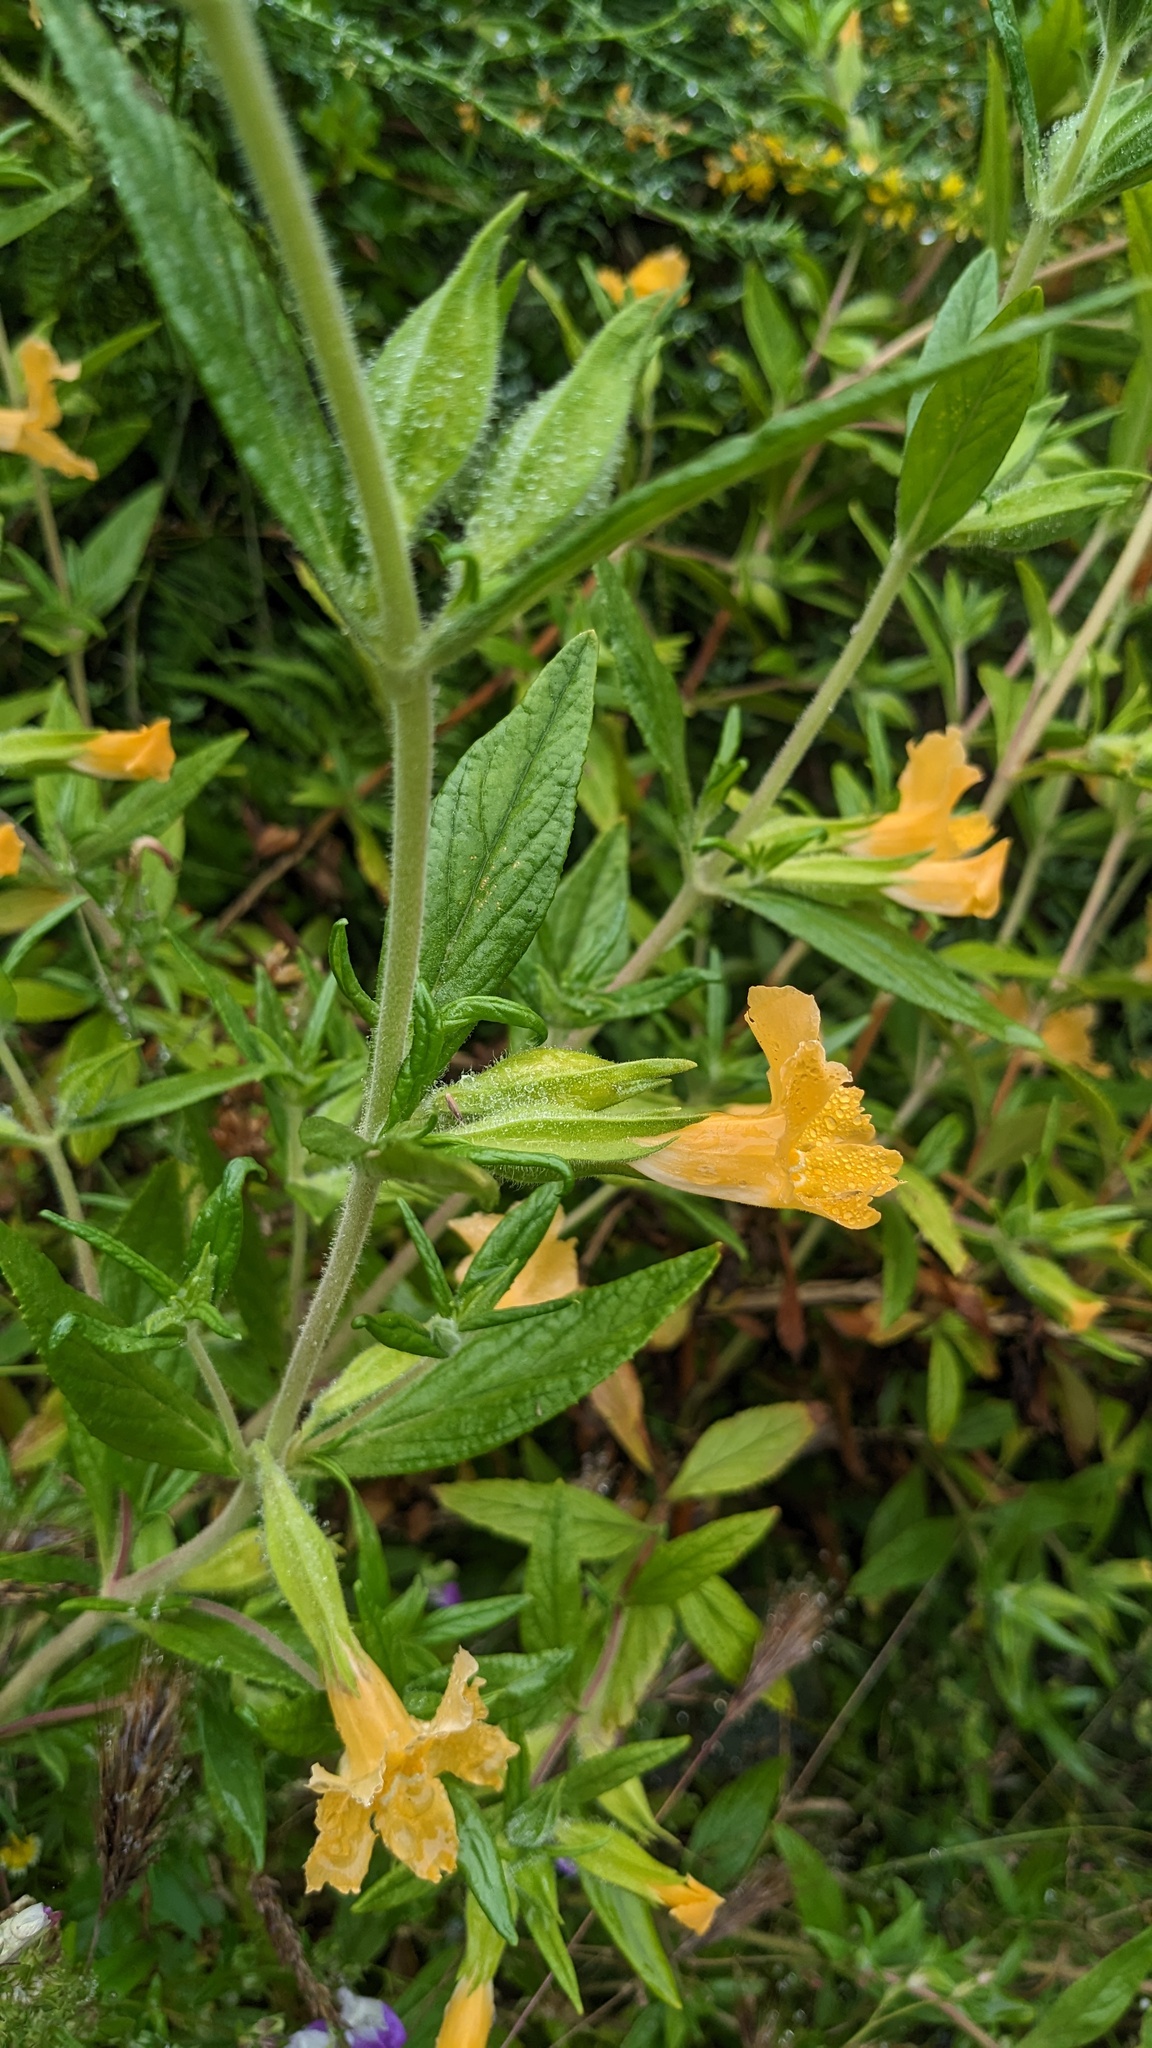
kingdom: Plantae
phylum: Tracheophyta
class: Magnoliopsida
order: Lamiales
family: Phrymaceae
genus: Diplacus
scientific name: Diplacus longiflorus
